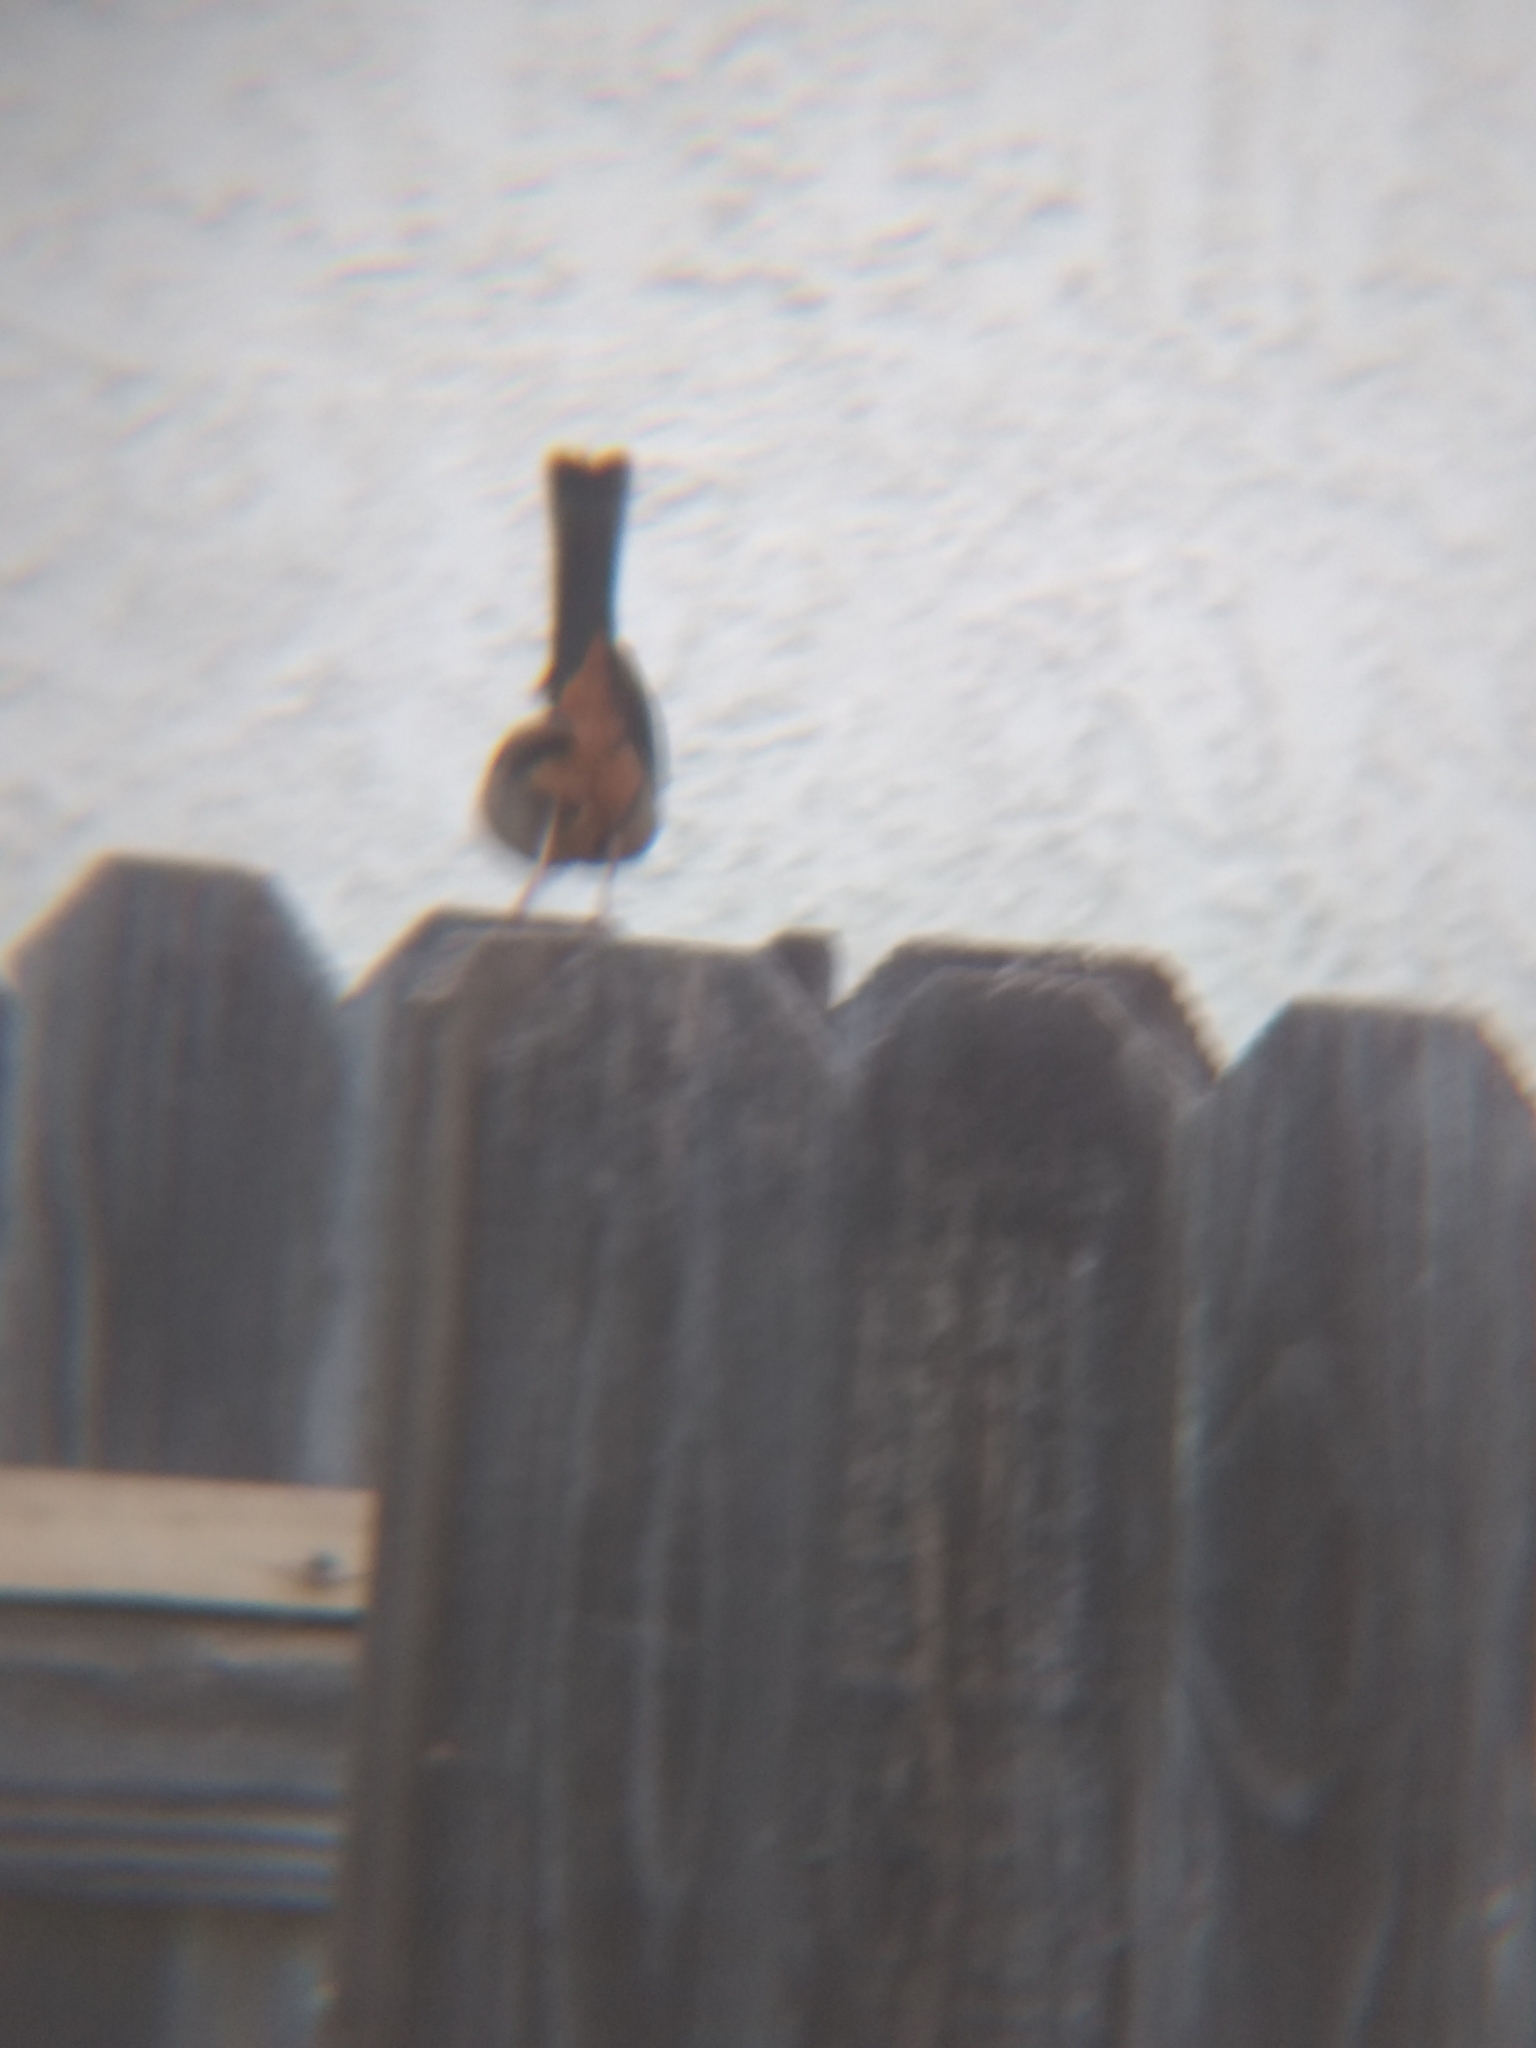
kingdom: Animalia
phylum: Chordata
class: Aves
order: Passeriformes
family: Passerellidae
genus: Melozone
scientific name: Melozone crissalis
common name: California towhee
